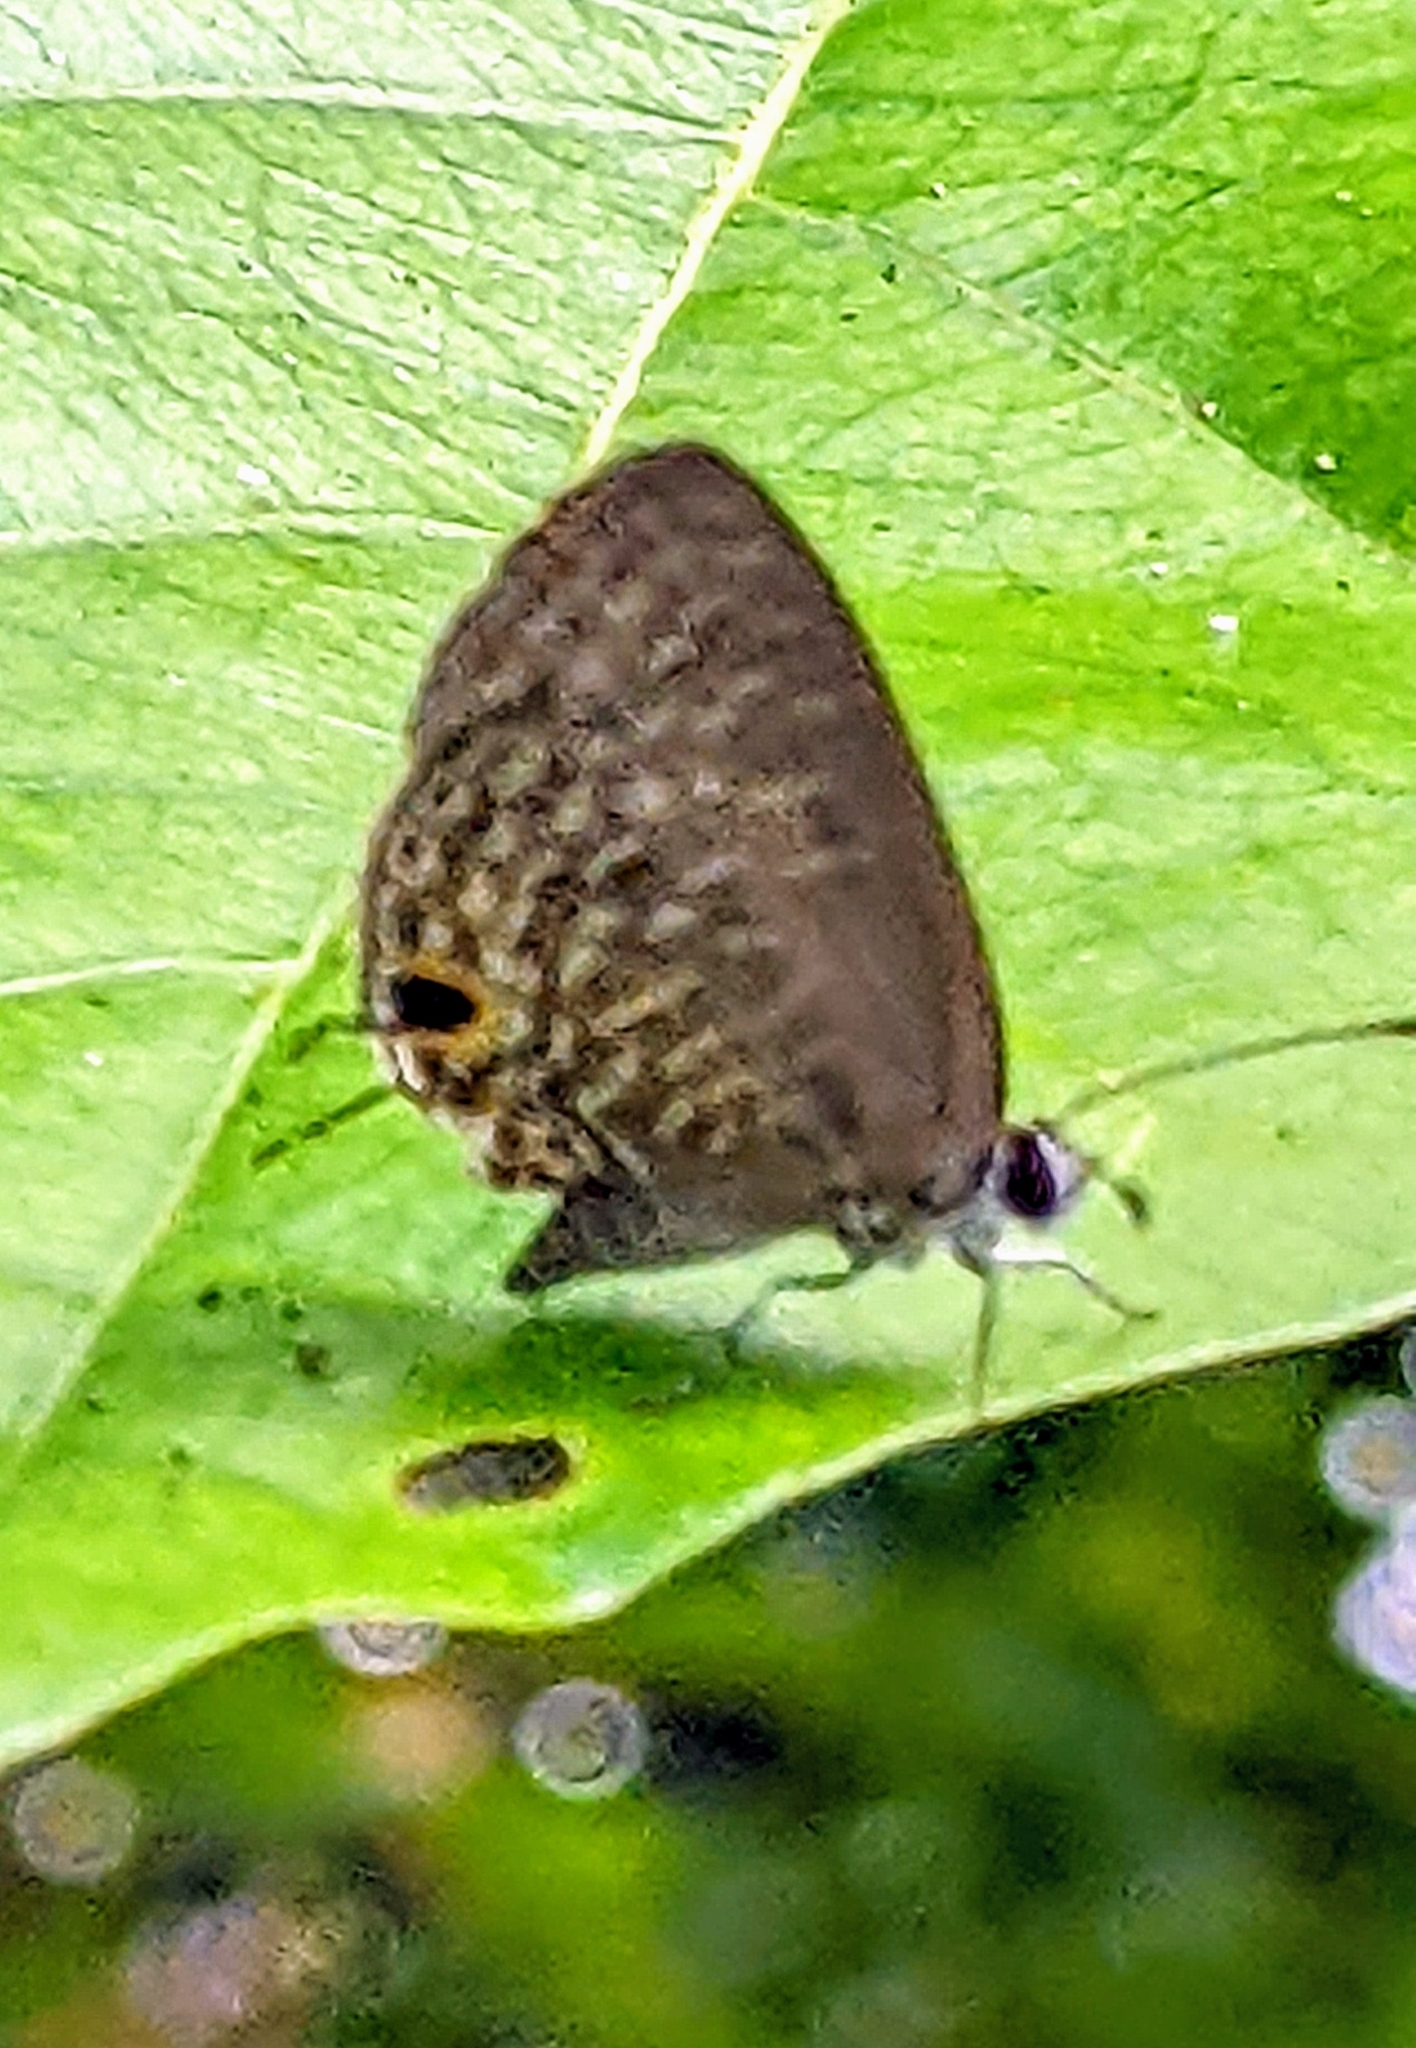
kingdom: Animalia
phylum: Arthropoda
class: Insecta
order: Lepidoptera
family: Lycaenidae
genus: Jamides
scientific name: Jamides bochus
